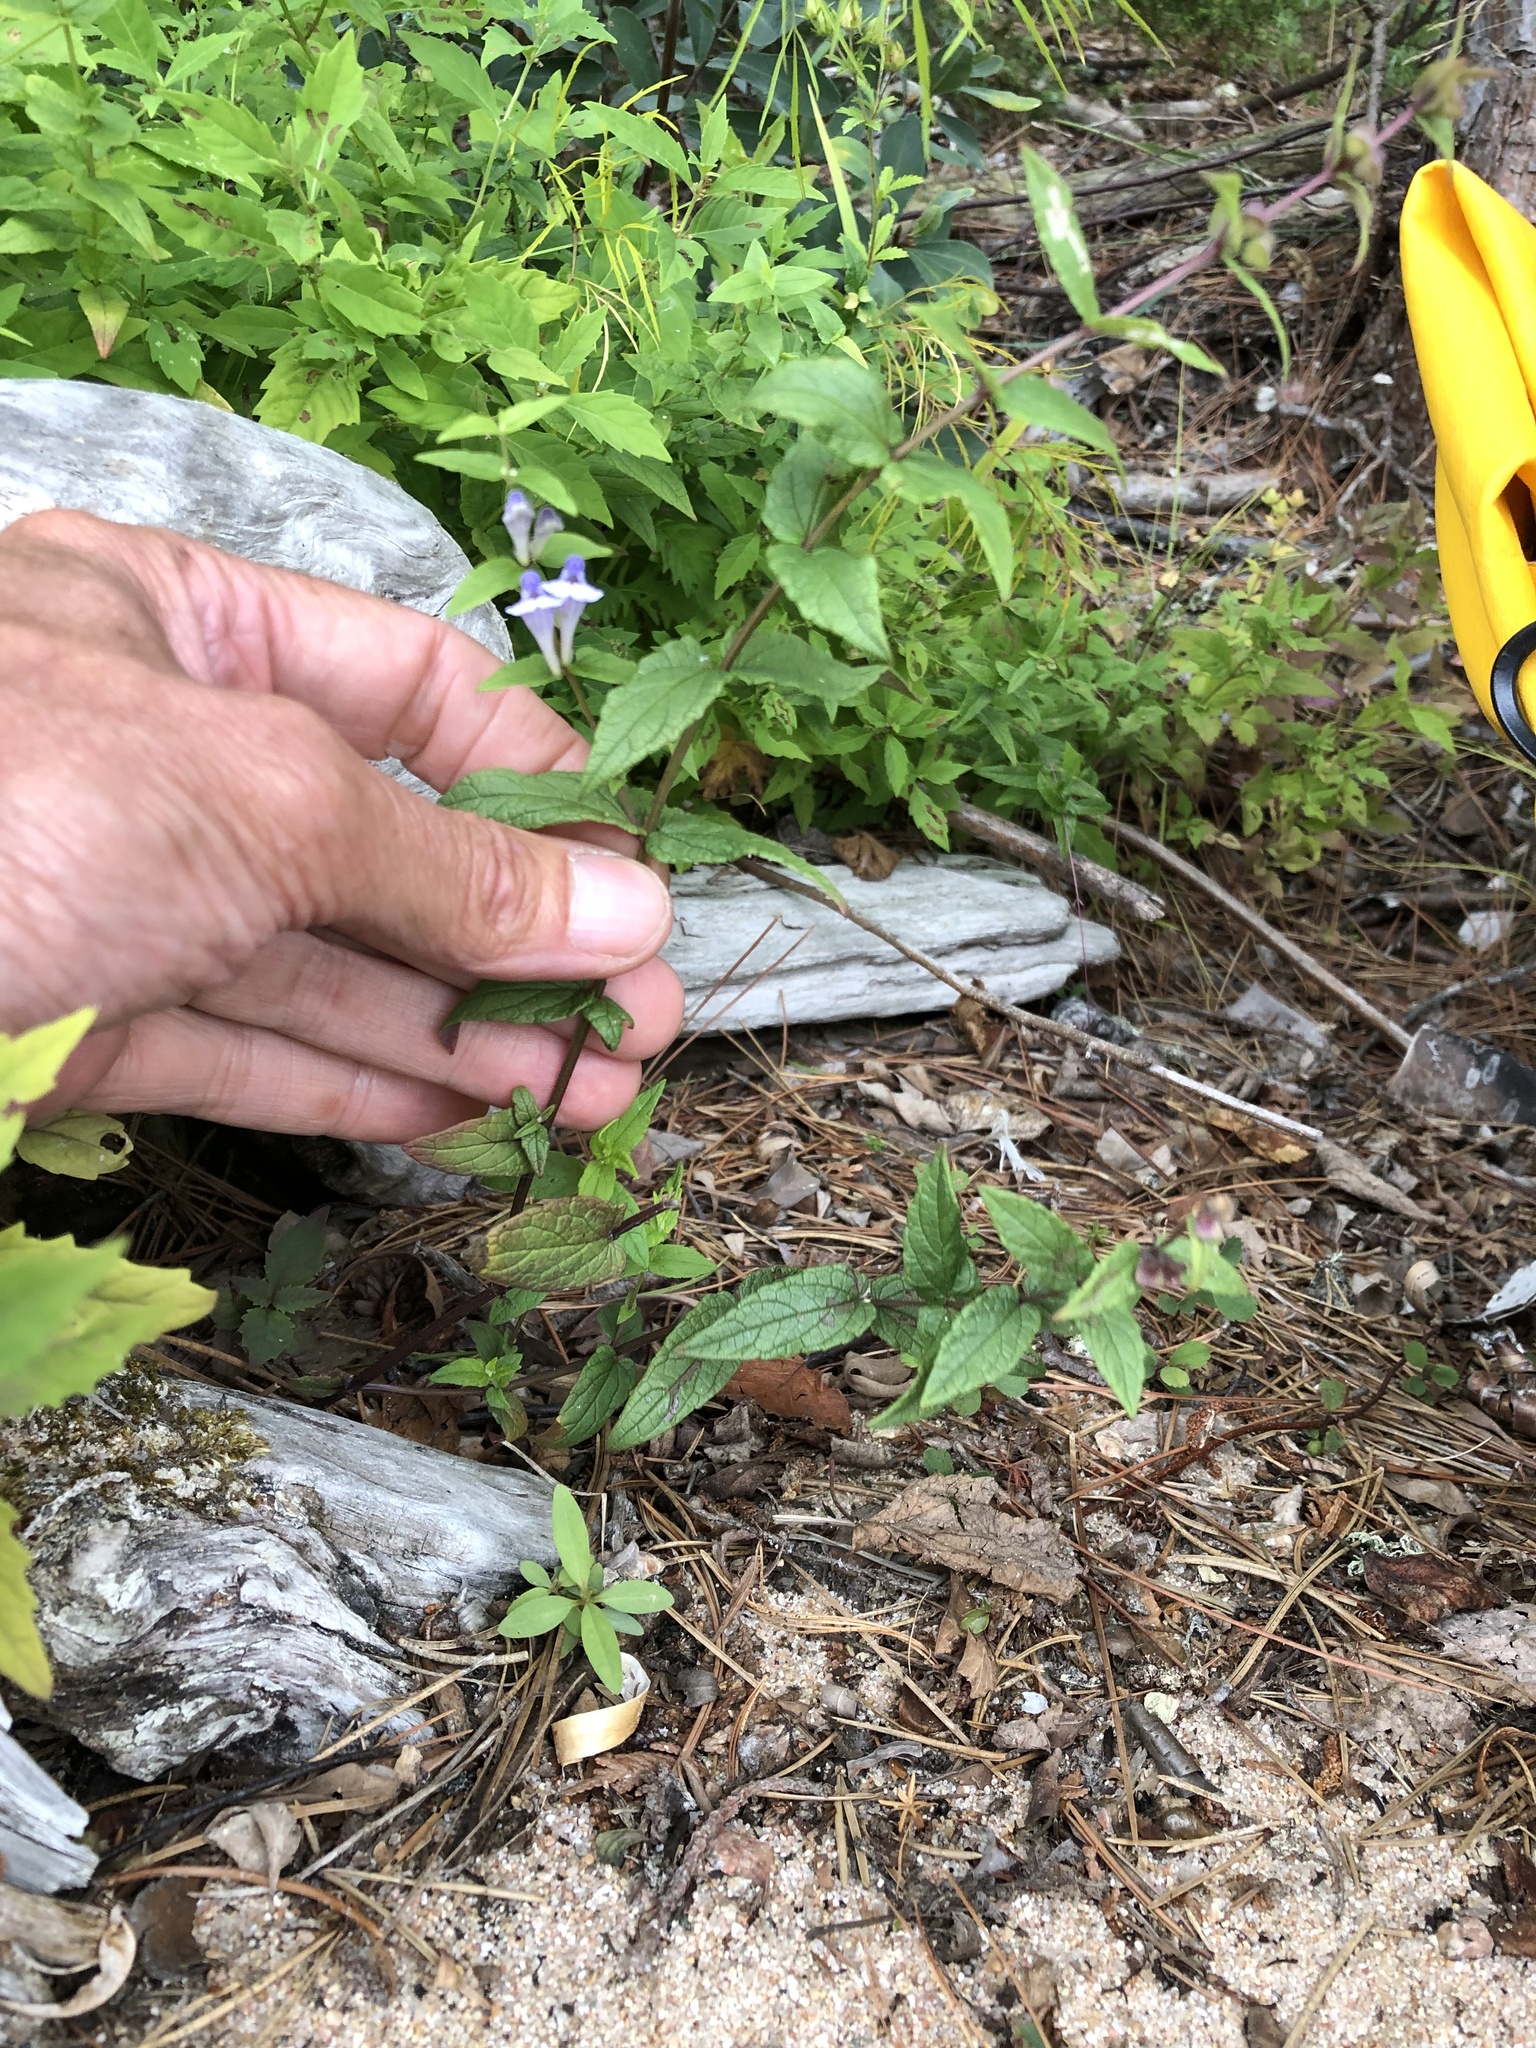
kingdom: Plantae
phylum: Tracheophyta
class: Magnoliopsida
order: Lamiales
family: Lamiaceae
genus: Scutellaria
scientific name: Scutellaria galericulata
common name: Skullcap
